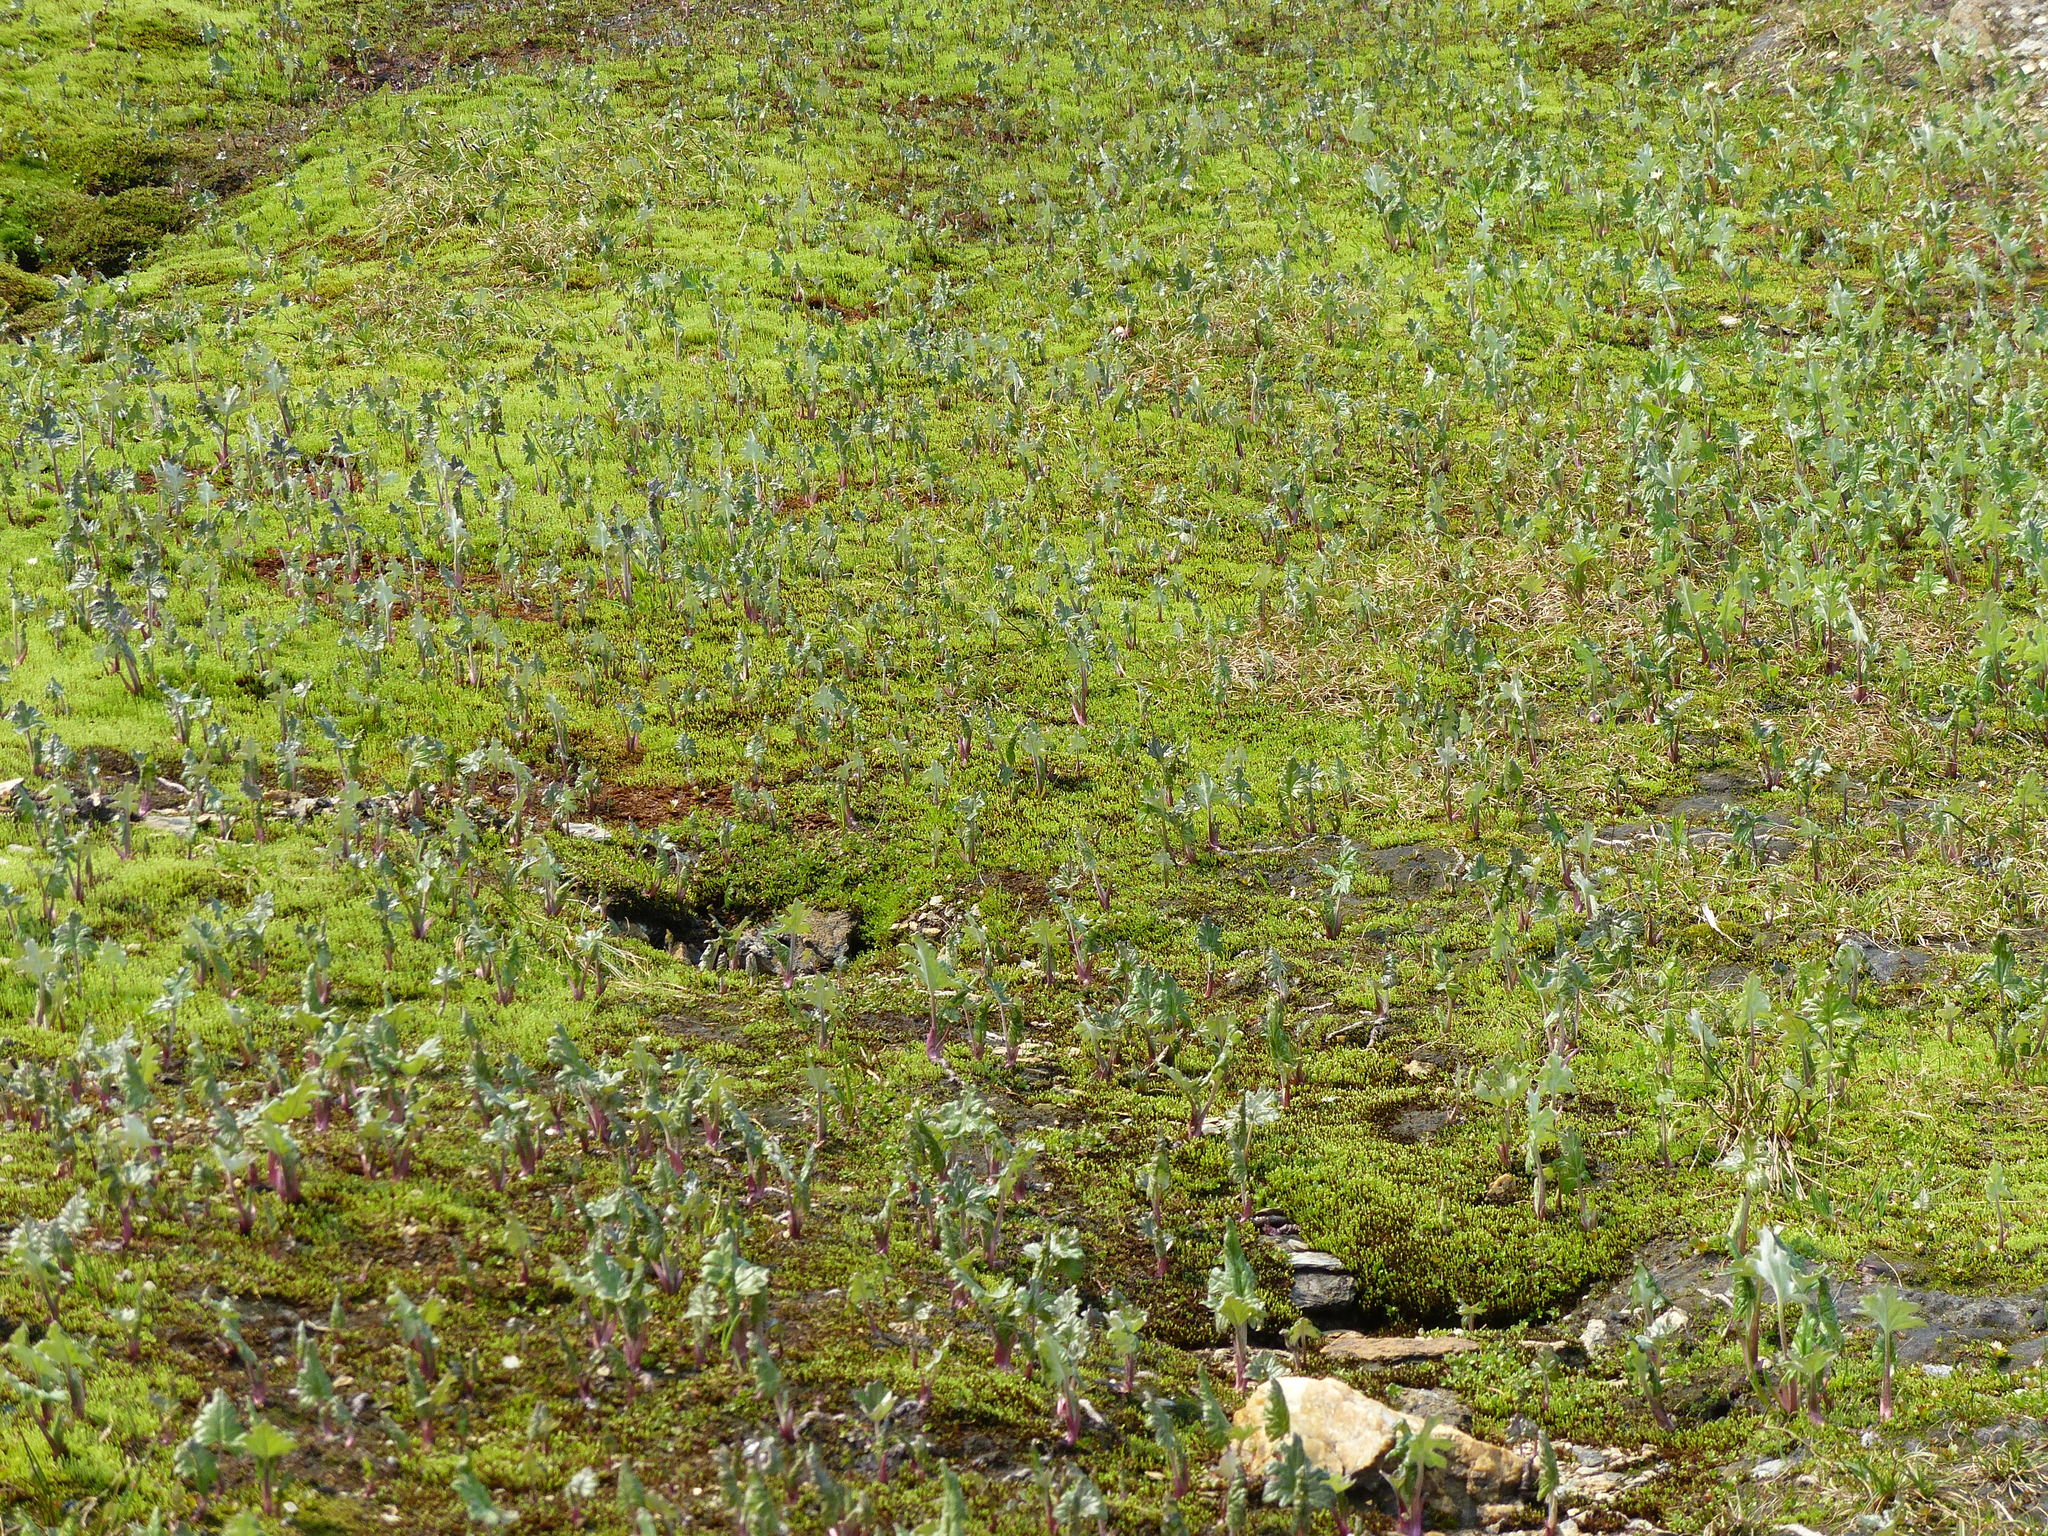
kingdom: Plantae
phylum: Tracheophyta
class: Magnoliopsida
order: Asterales
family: Asteraceae
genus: Petasites
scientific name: Petasites frigidus
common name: Arctic butterbur
